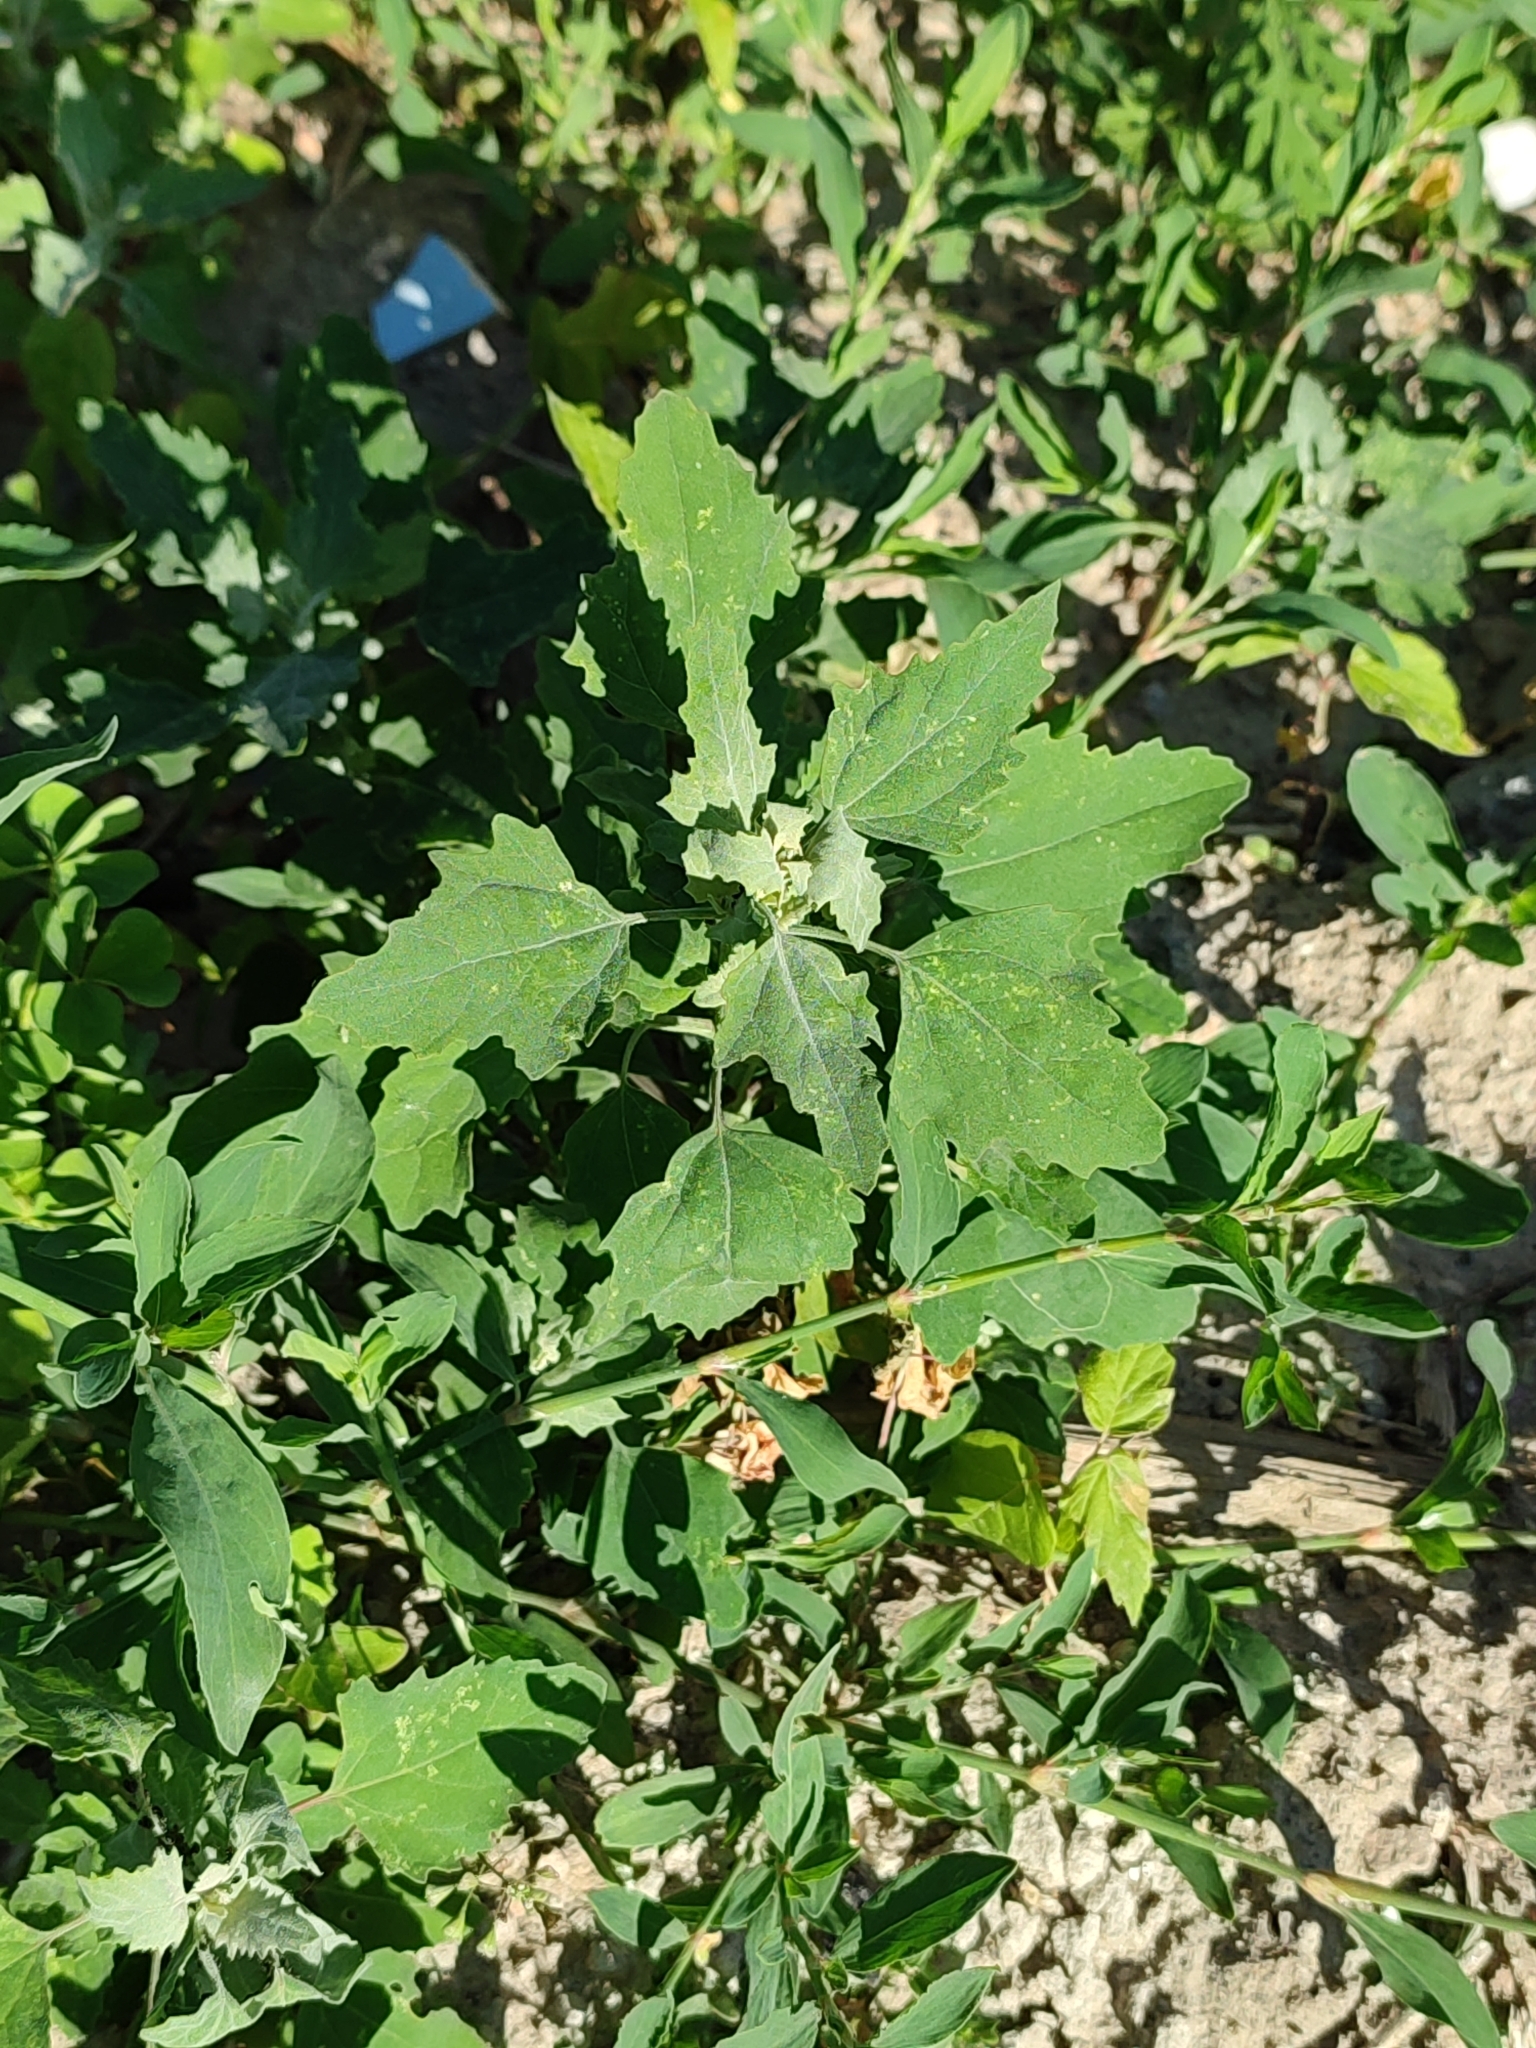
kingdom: Plantae
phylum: Tracheophyta
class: Magnoliopsida
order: Caryophyllales
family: Amaranthaceae
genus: Chenopodium
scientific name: Chenopodium album
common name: Fat-hen
